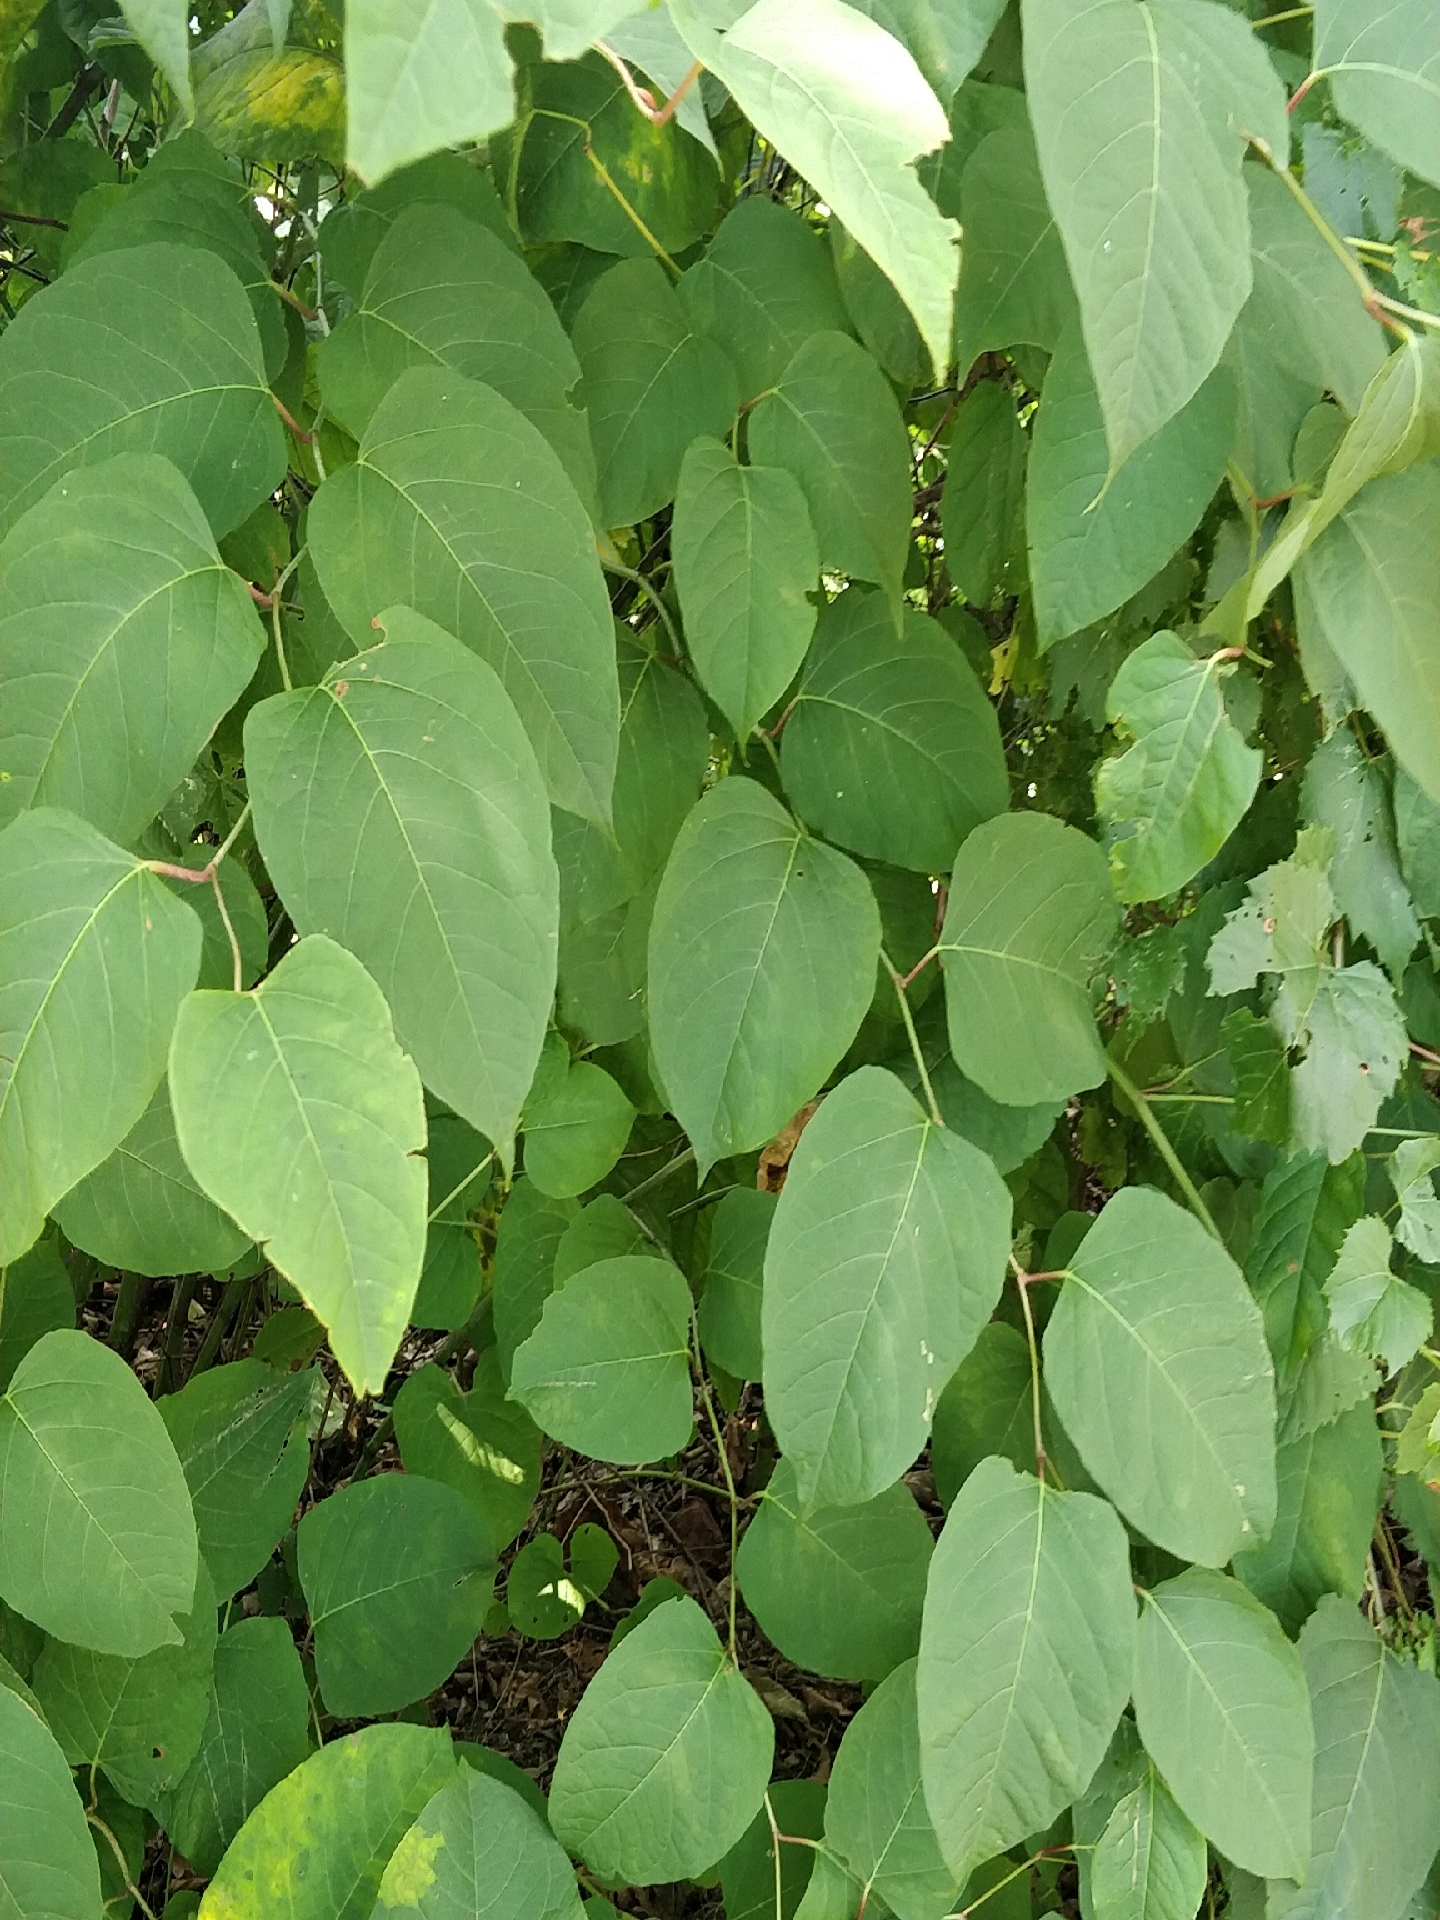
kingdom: Plantae
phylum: Tracheophyta
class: Magnoliopsida
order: Caryophyllales
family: Polygonaceae
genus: Reynoutria
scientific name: Reynoutria japonica
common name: Japanese knotweed
